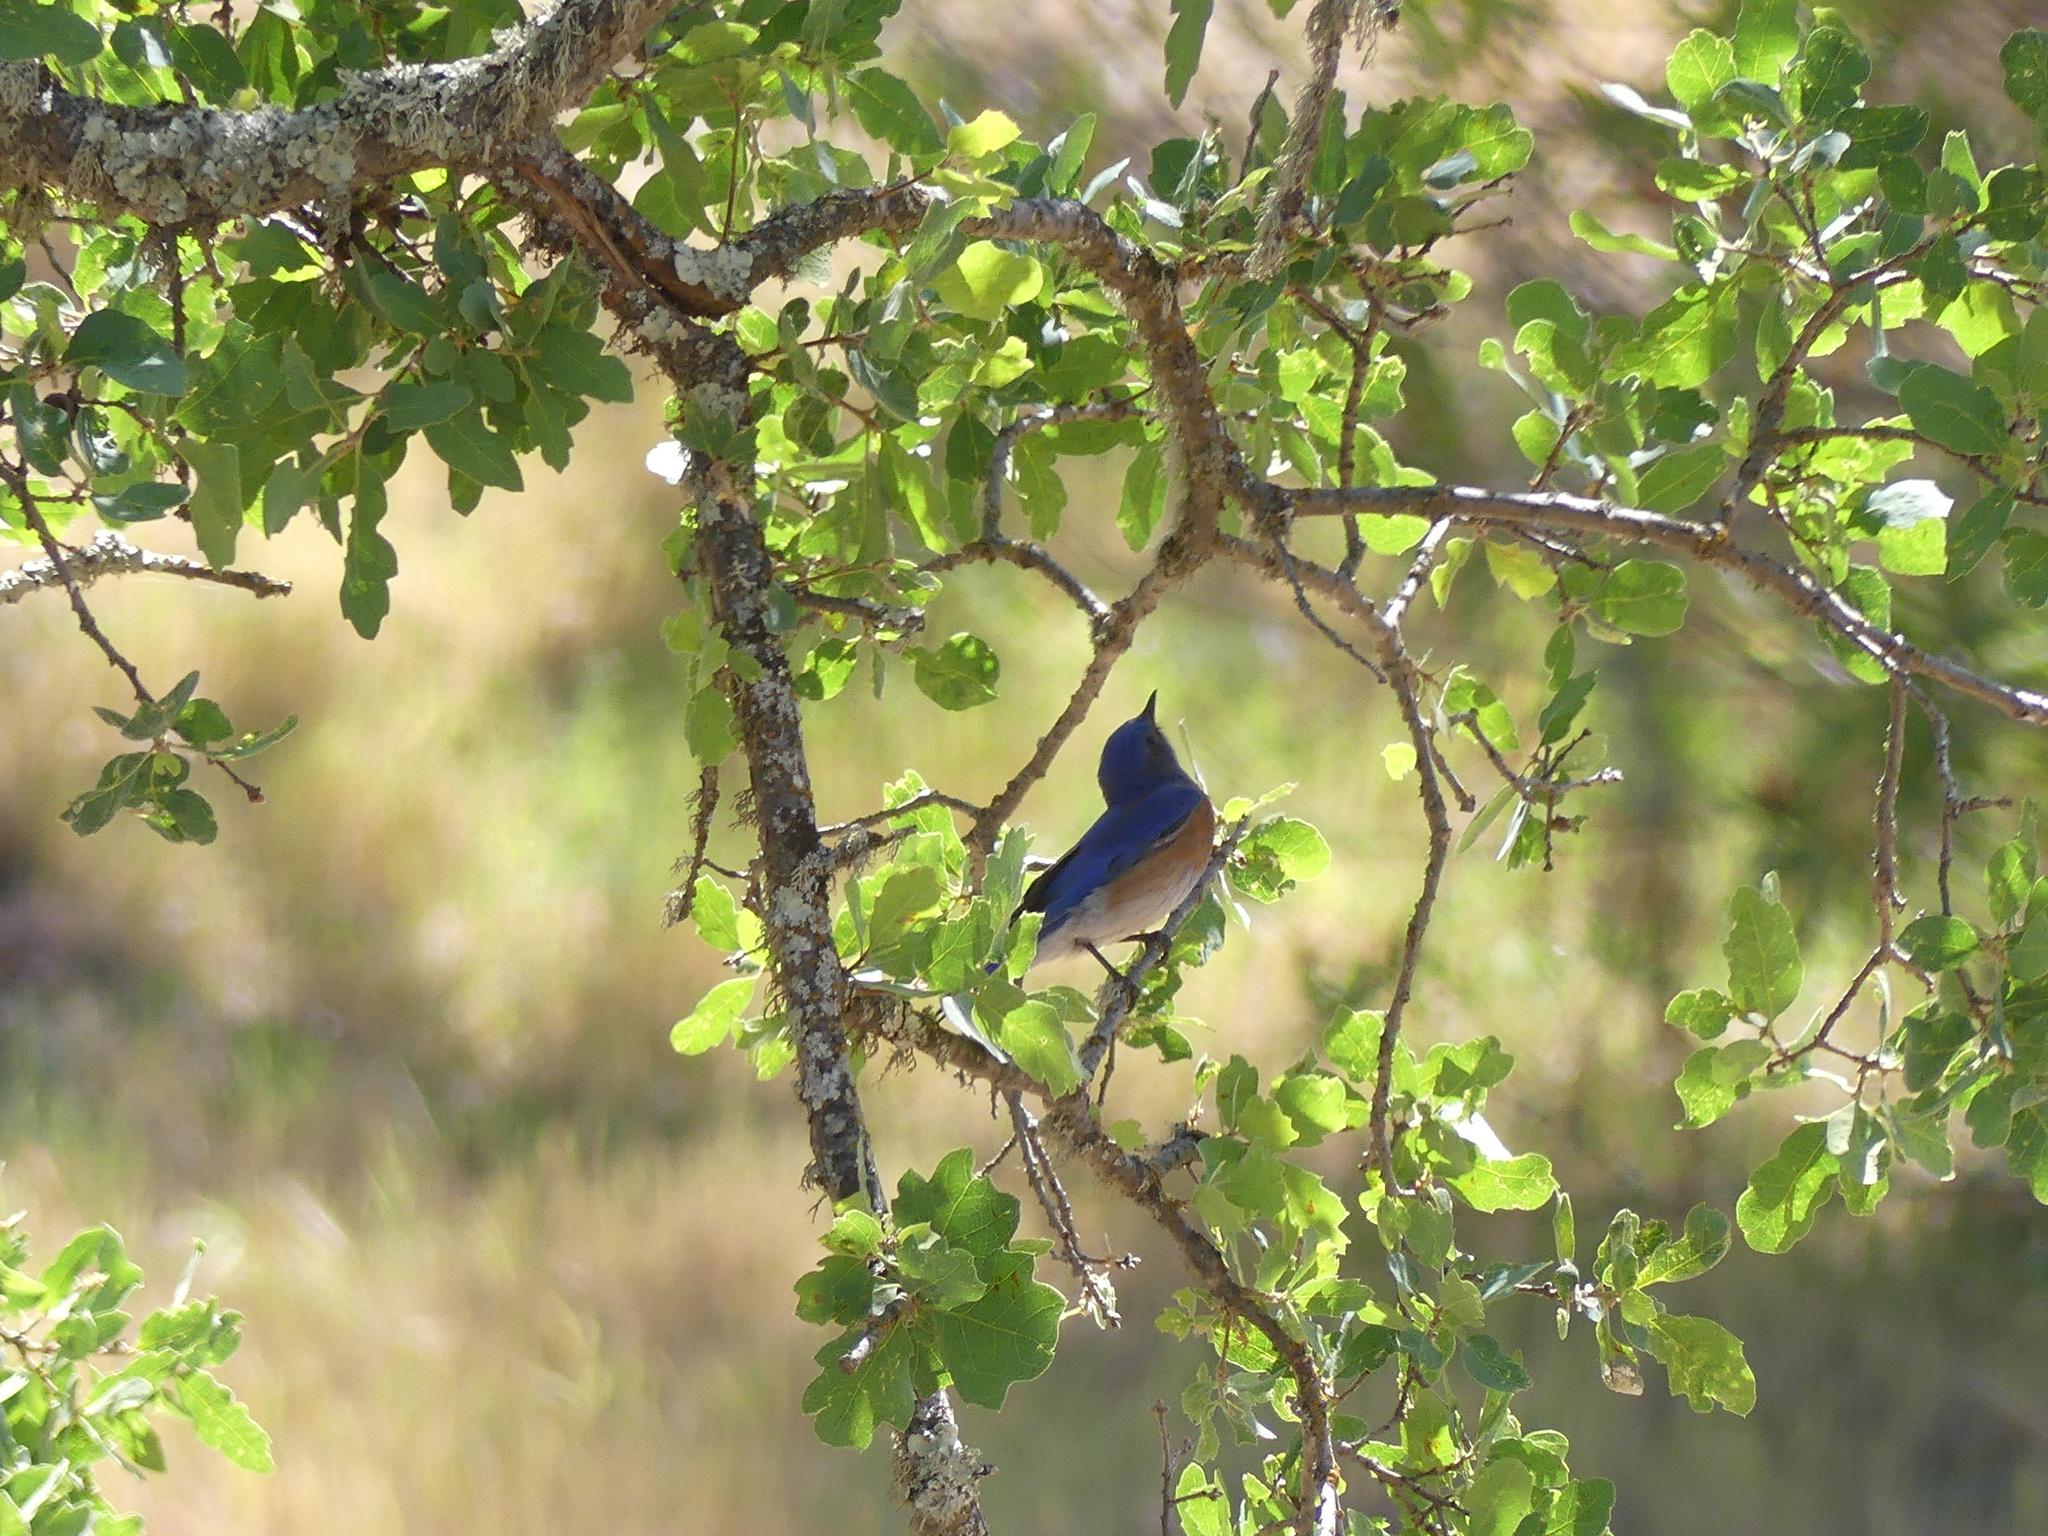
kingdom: Animalia
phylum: Chordata
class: Aves
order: Passeriformes
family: Turdidae
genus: Sialia
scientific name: Sialia mexicana
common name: Western bluebird
